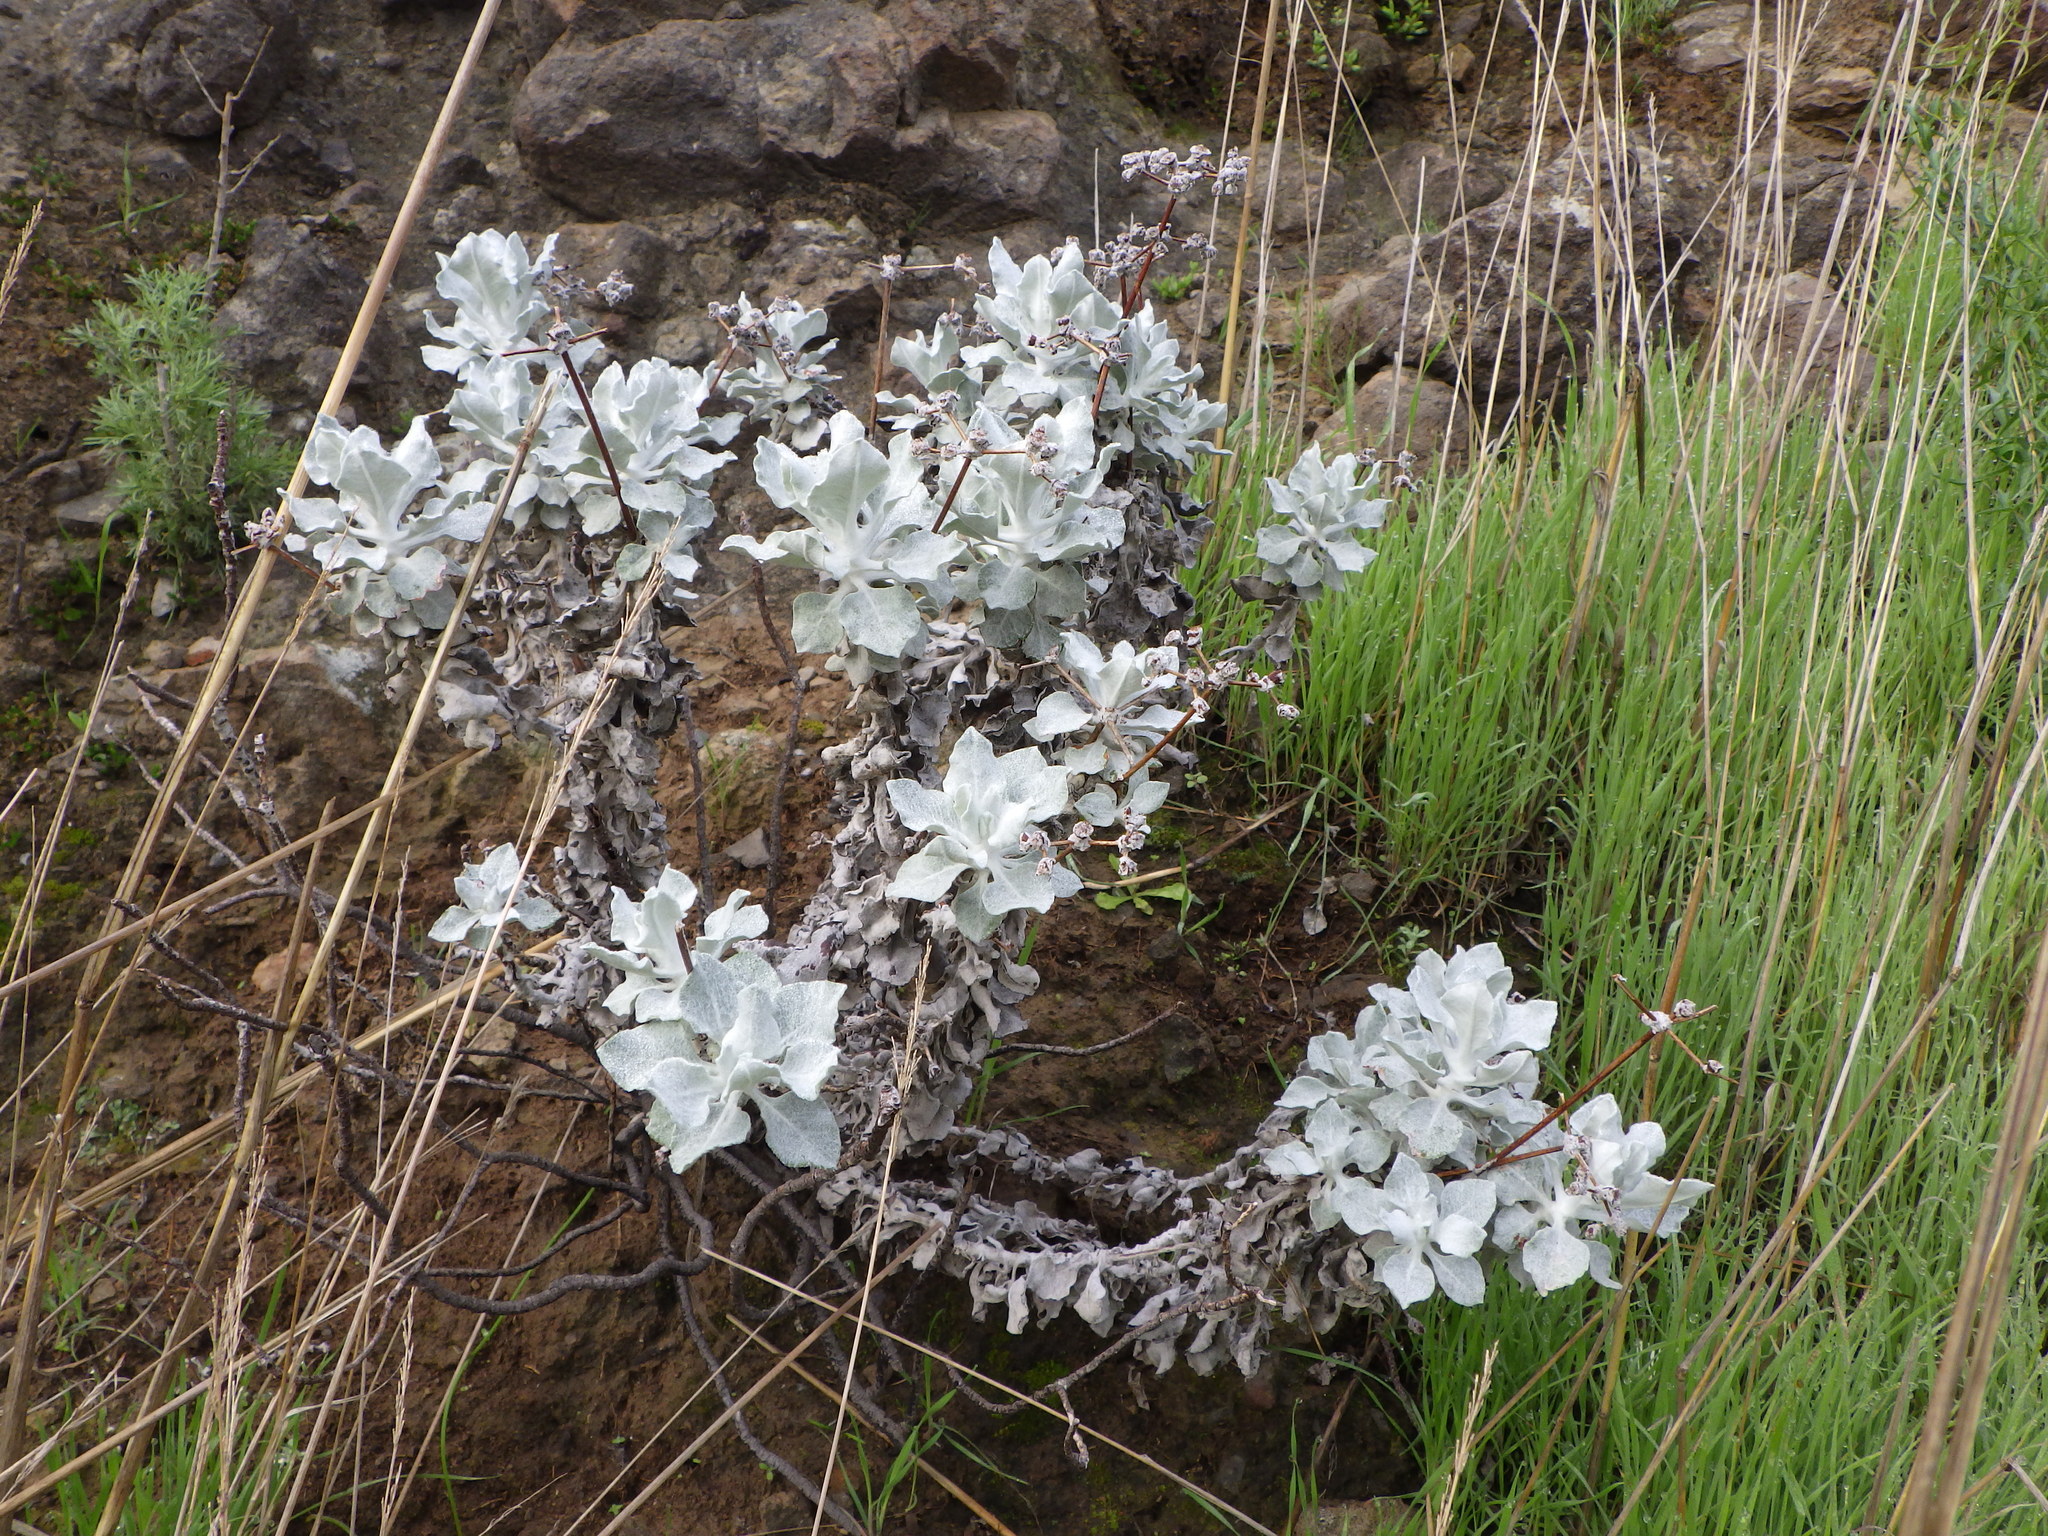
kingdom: Plantae
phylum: Tracheophyta
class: Magnoliopsida
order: Caryophyllales
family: Polygonaceae
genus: Eriogonum
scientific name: Eriogonum crocatum
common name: Saffron wild buckwheat
